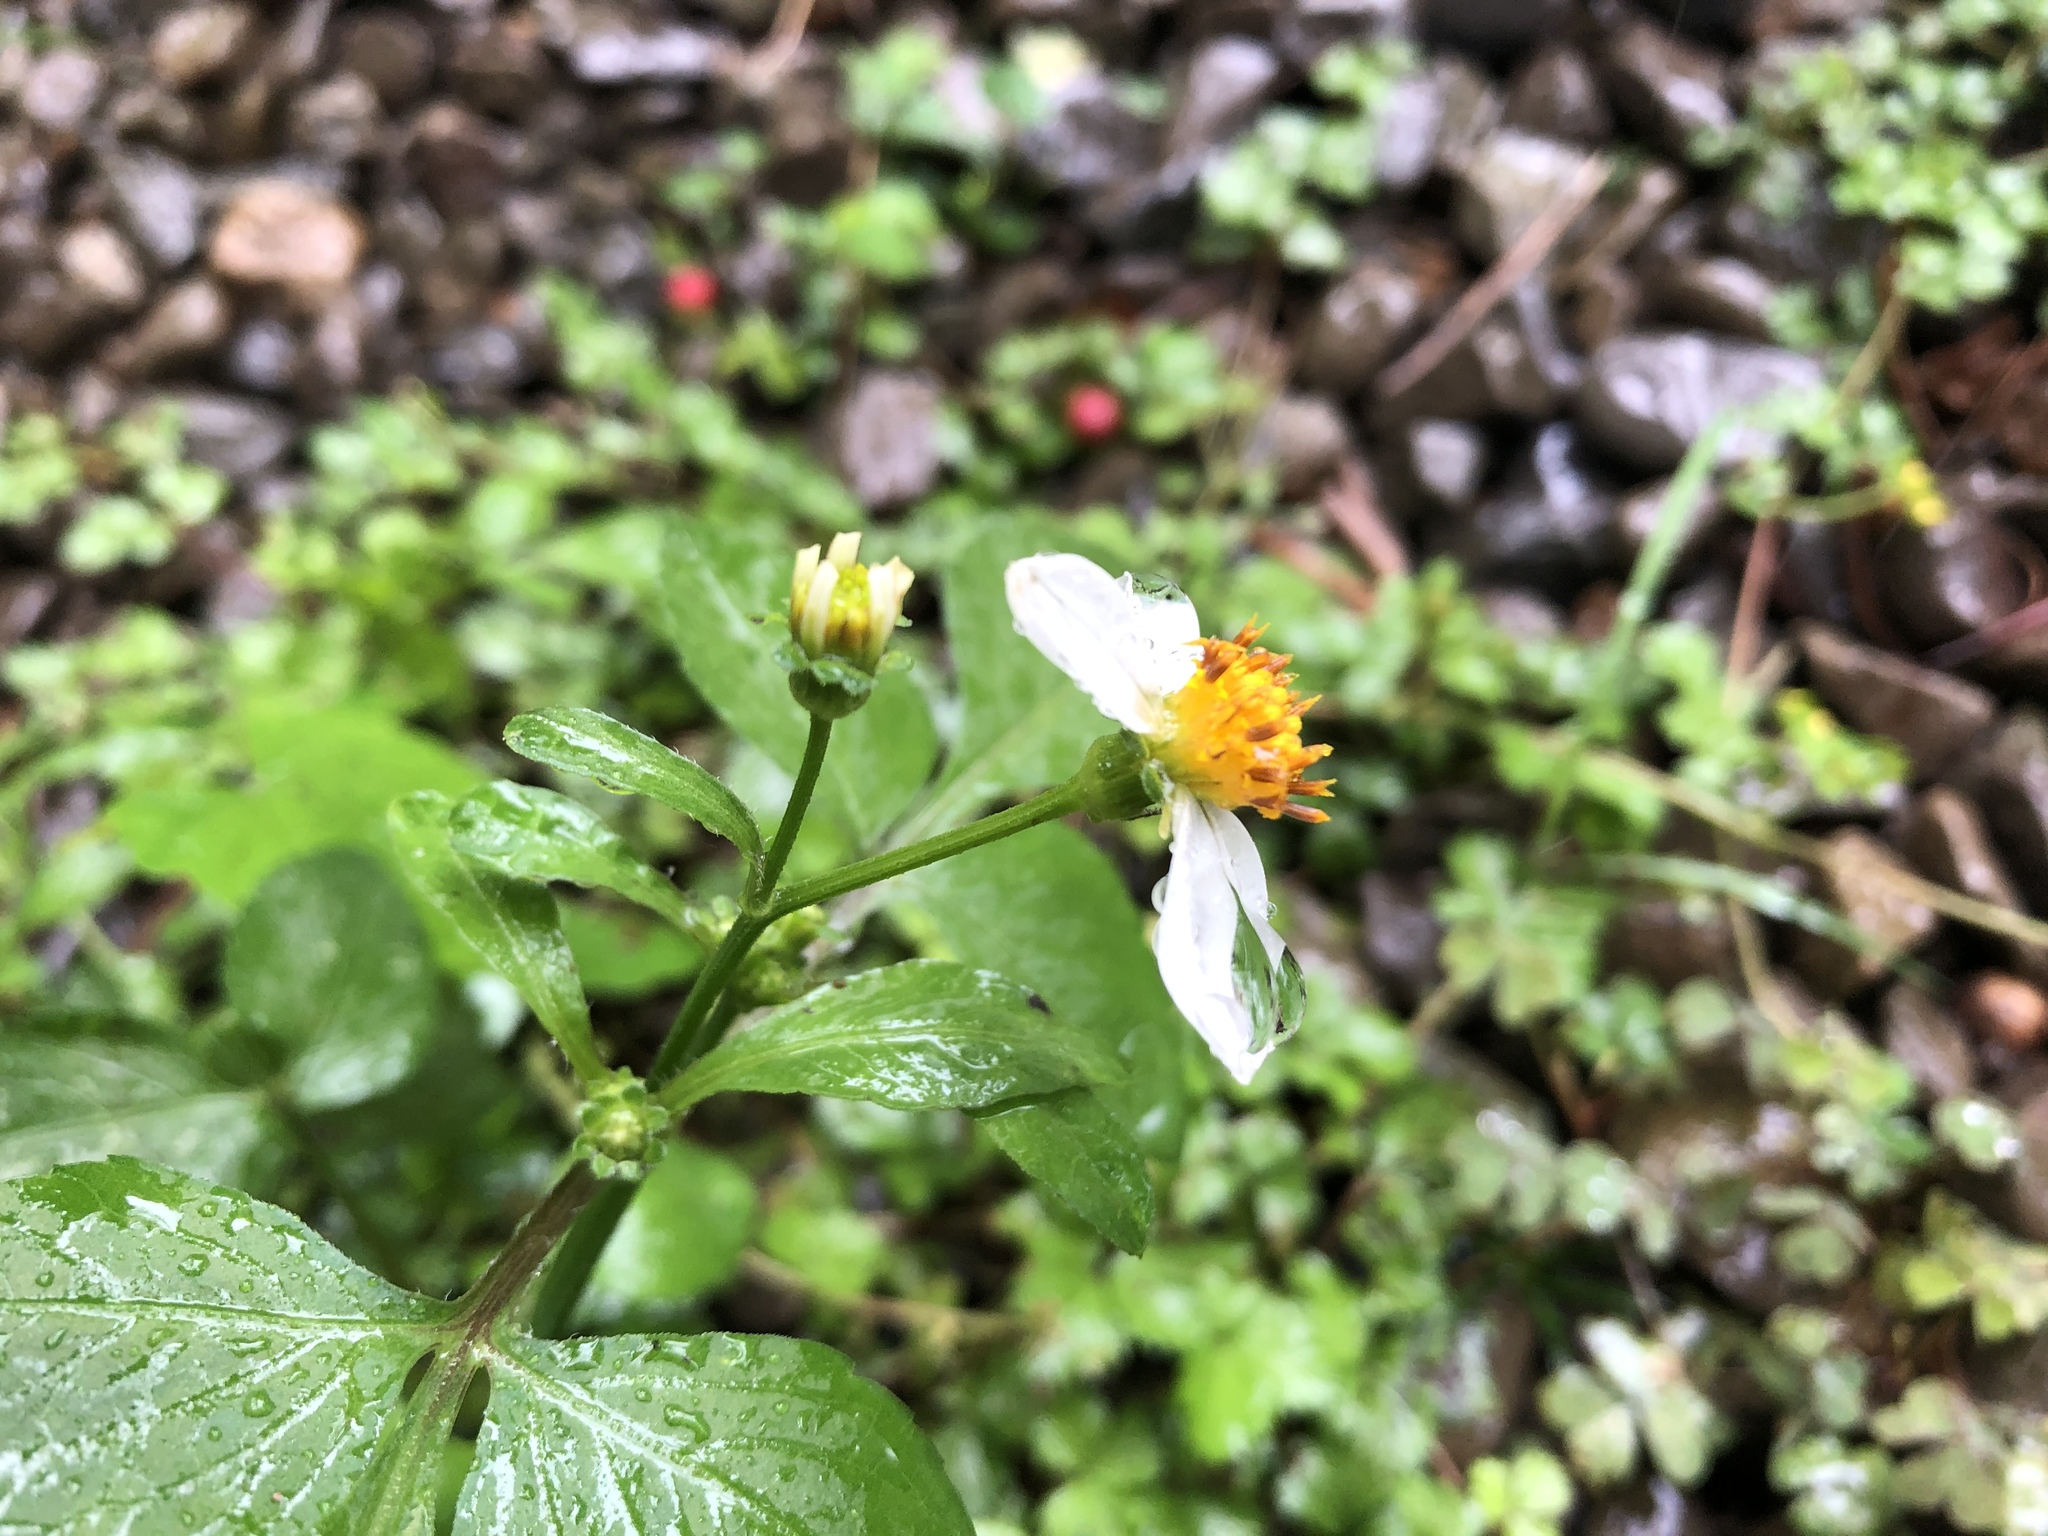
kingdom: Plantae
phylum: Tracheophyta
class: Magnoliopsida
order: Asterales
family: Asteraceae
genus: Bidens
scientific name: Bidens alba
